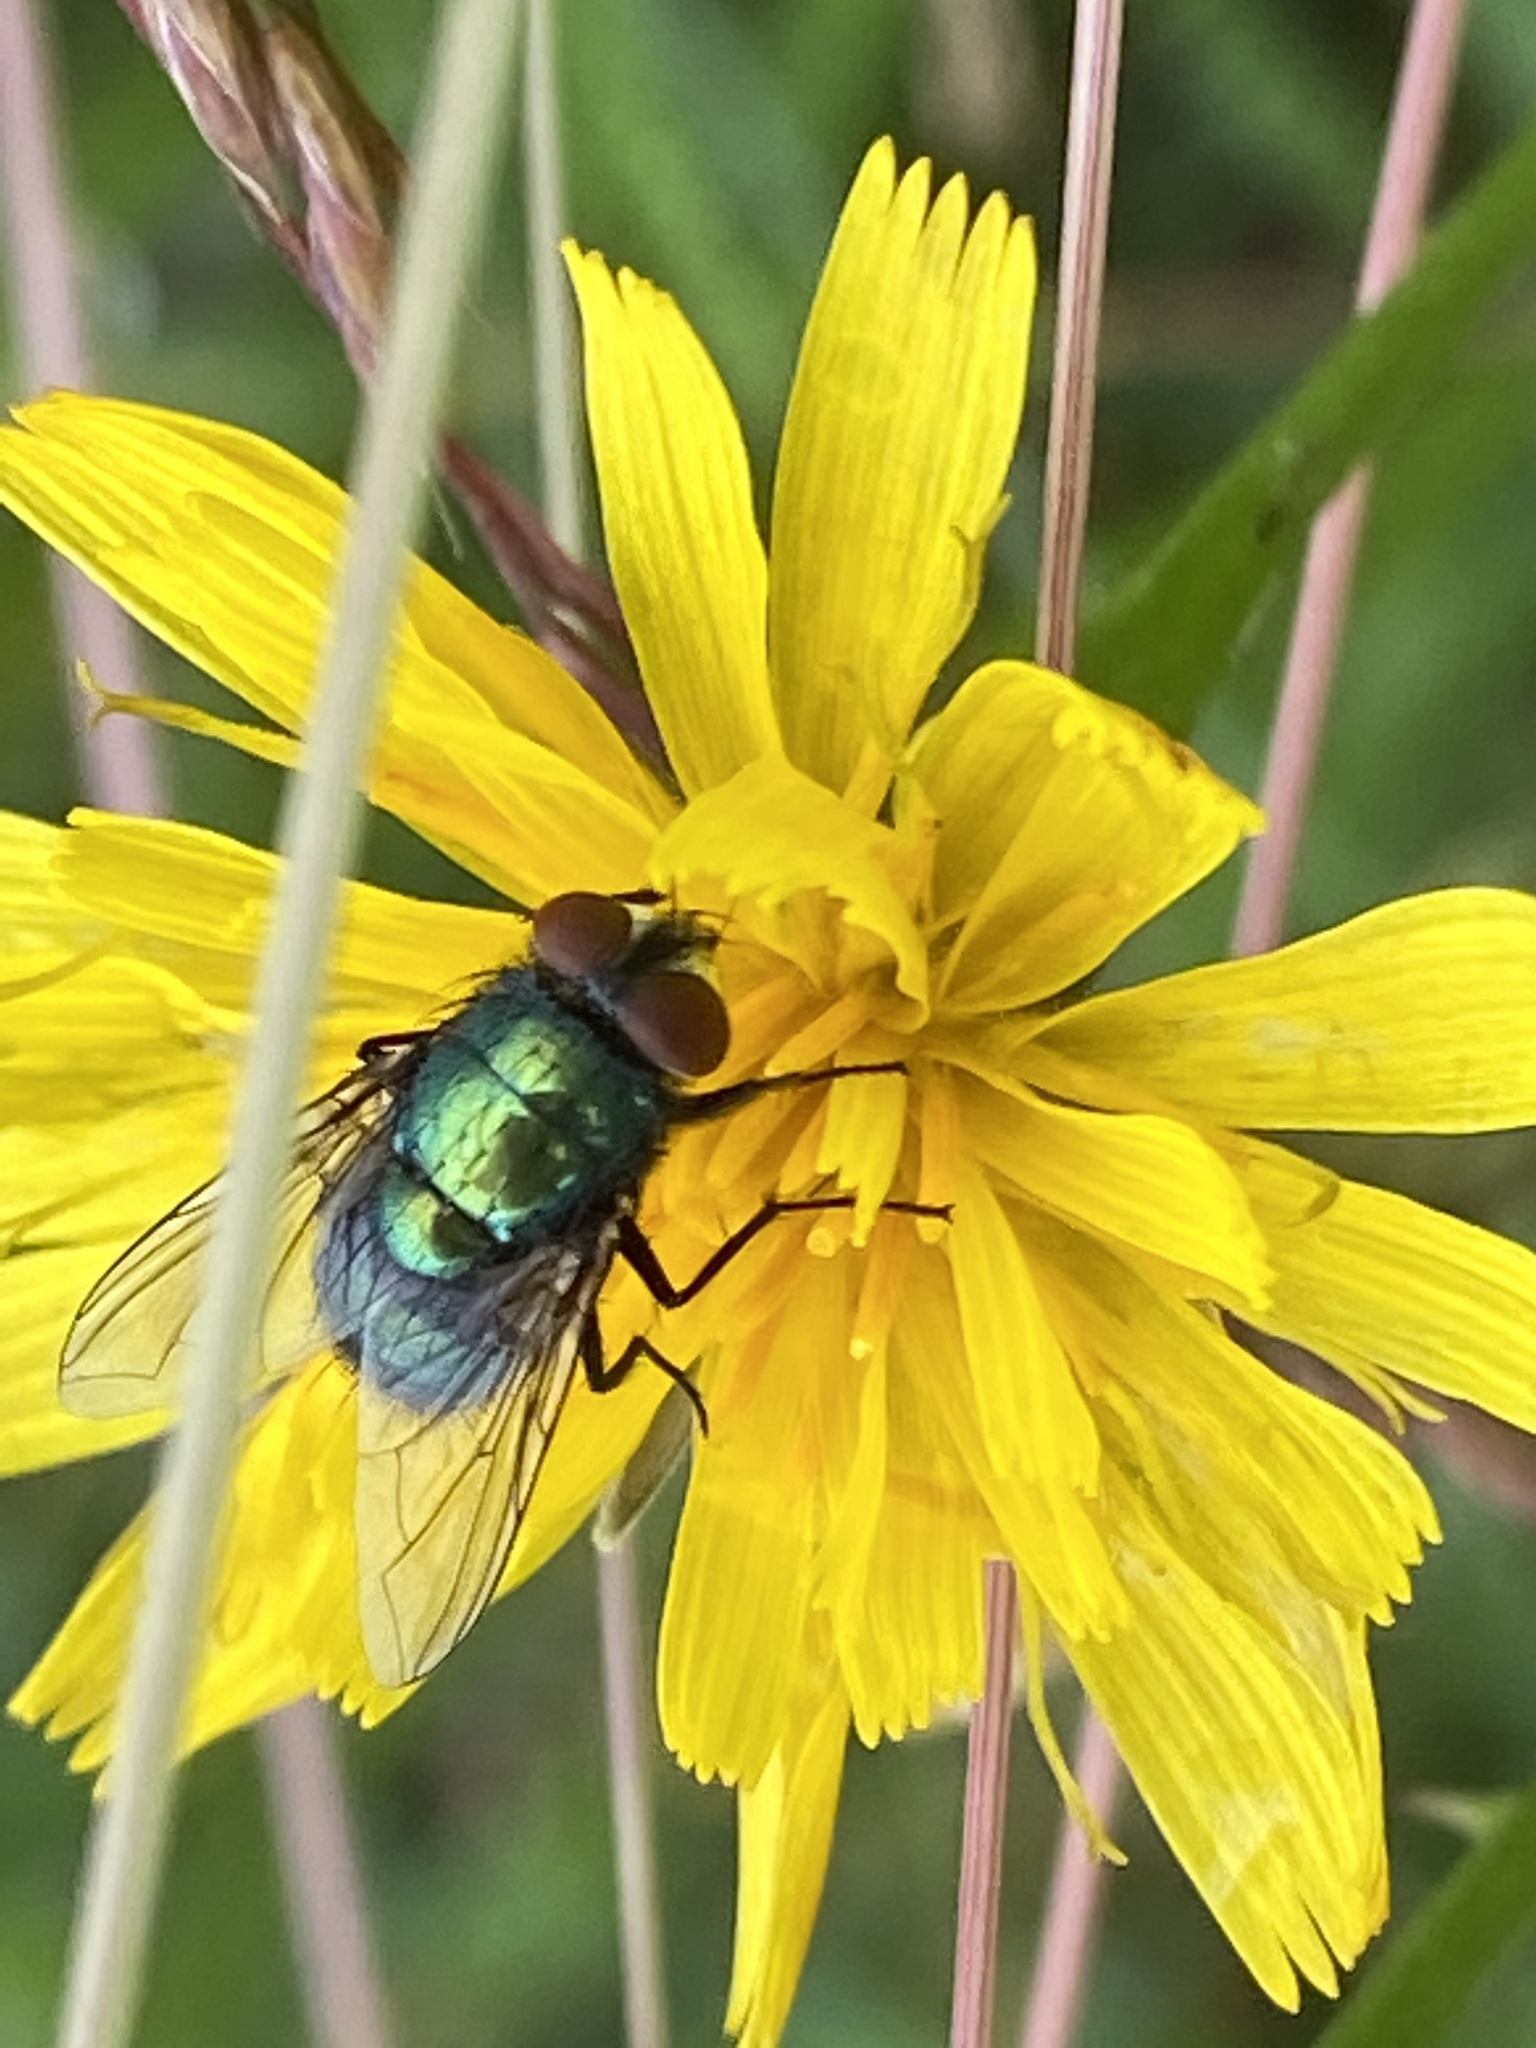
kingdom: Animalia
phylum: Arthropoda
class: Insecta
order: Diptera
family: Calliphoridae
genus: Lucilia
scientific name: Lucilia sericata
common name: Blow fly
